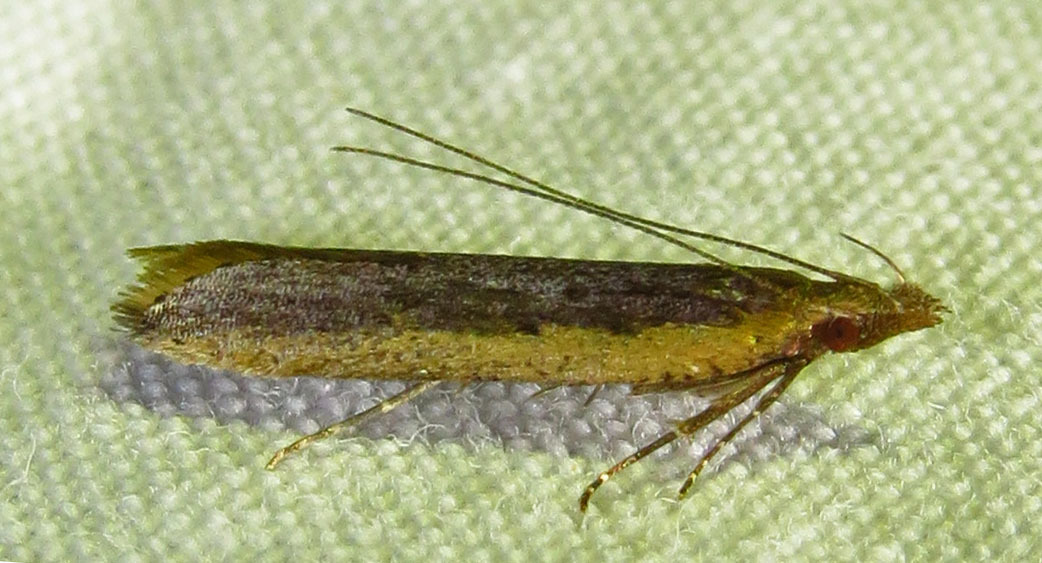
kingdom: Animalia
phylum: Arthropoda
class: Insecta
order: Lepidoptera
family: Gelechiidae
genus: Dichomeris
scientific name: Dichomeris ligulella
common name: Moth
